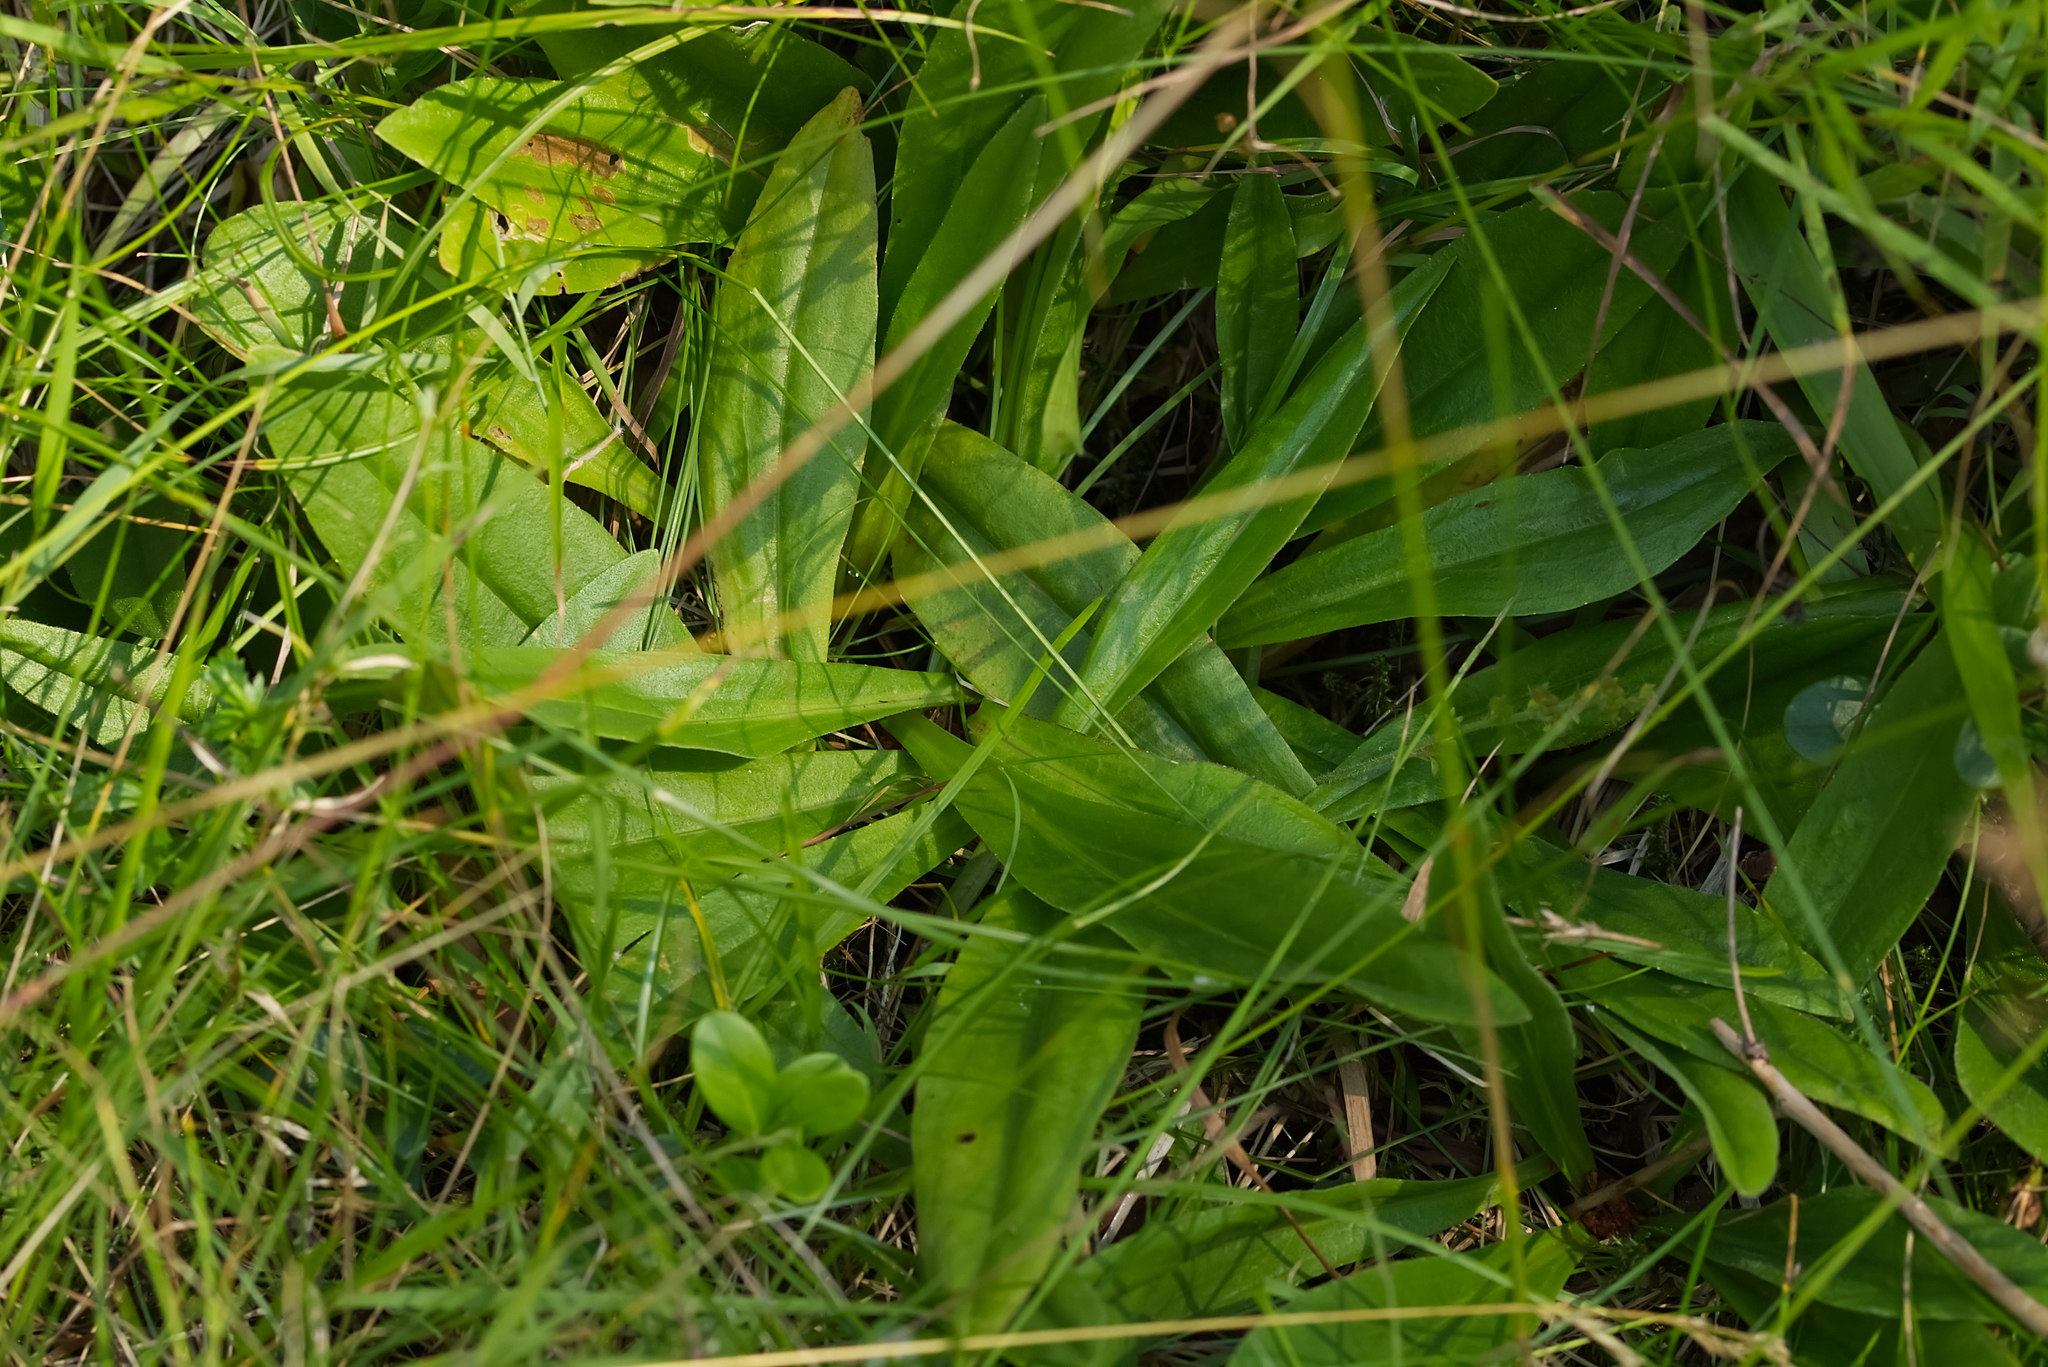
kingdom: Plantae
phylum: Tracheophyta
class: Magnoliopsida
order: Asterales
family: Asteraceae
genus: Arnica
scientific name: Arnica montana
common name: Leopard's bane
